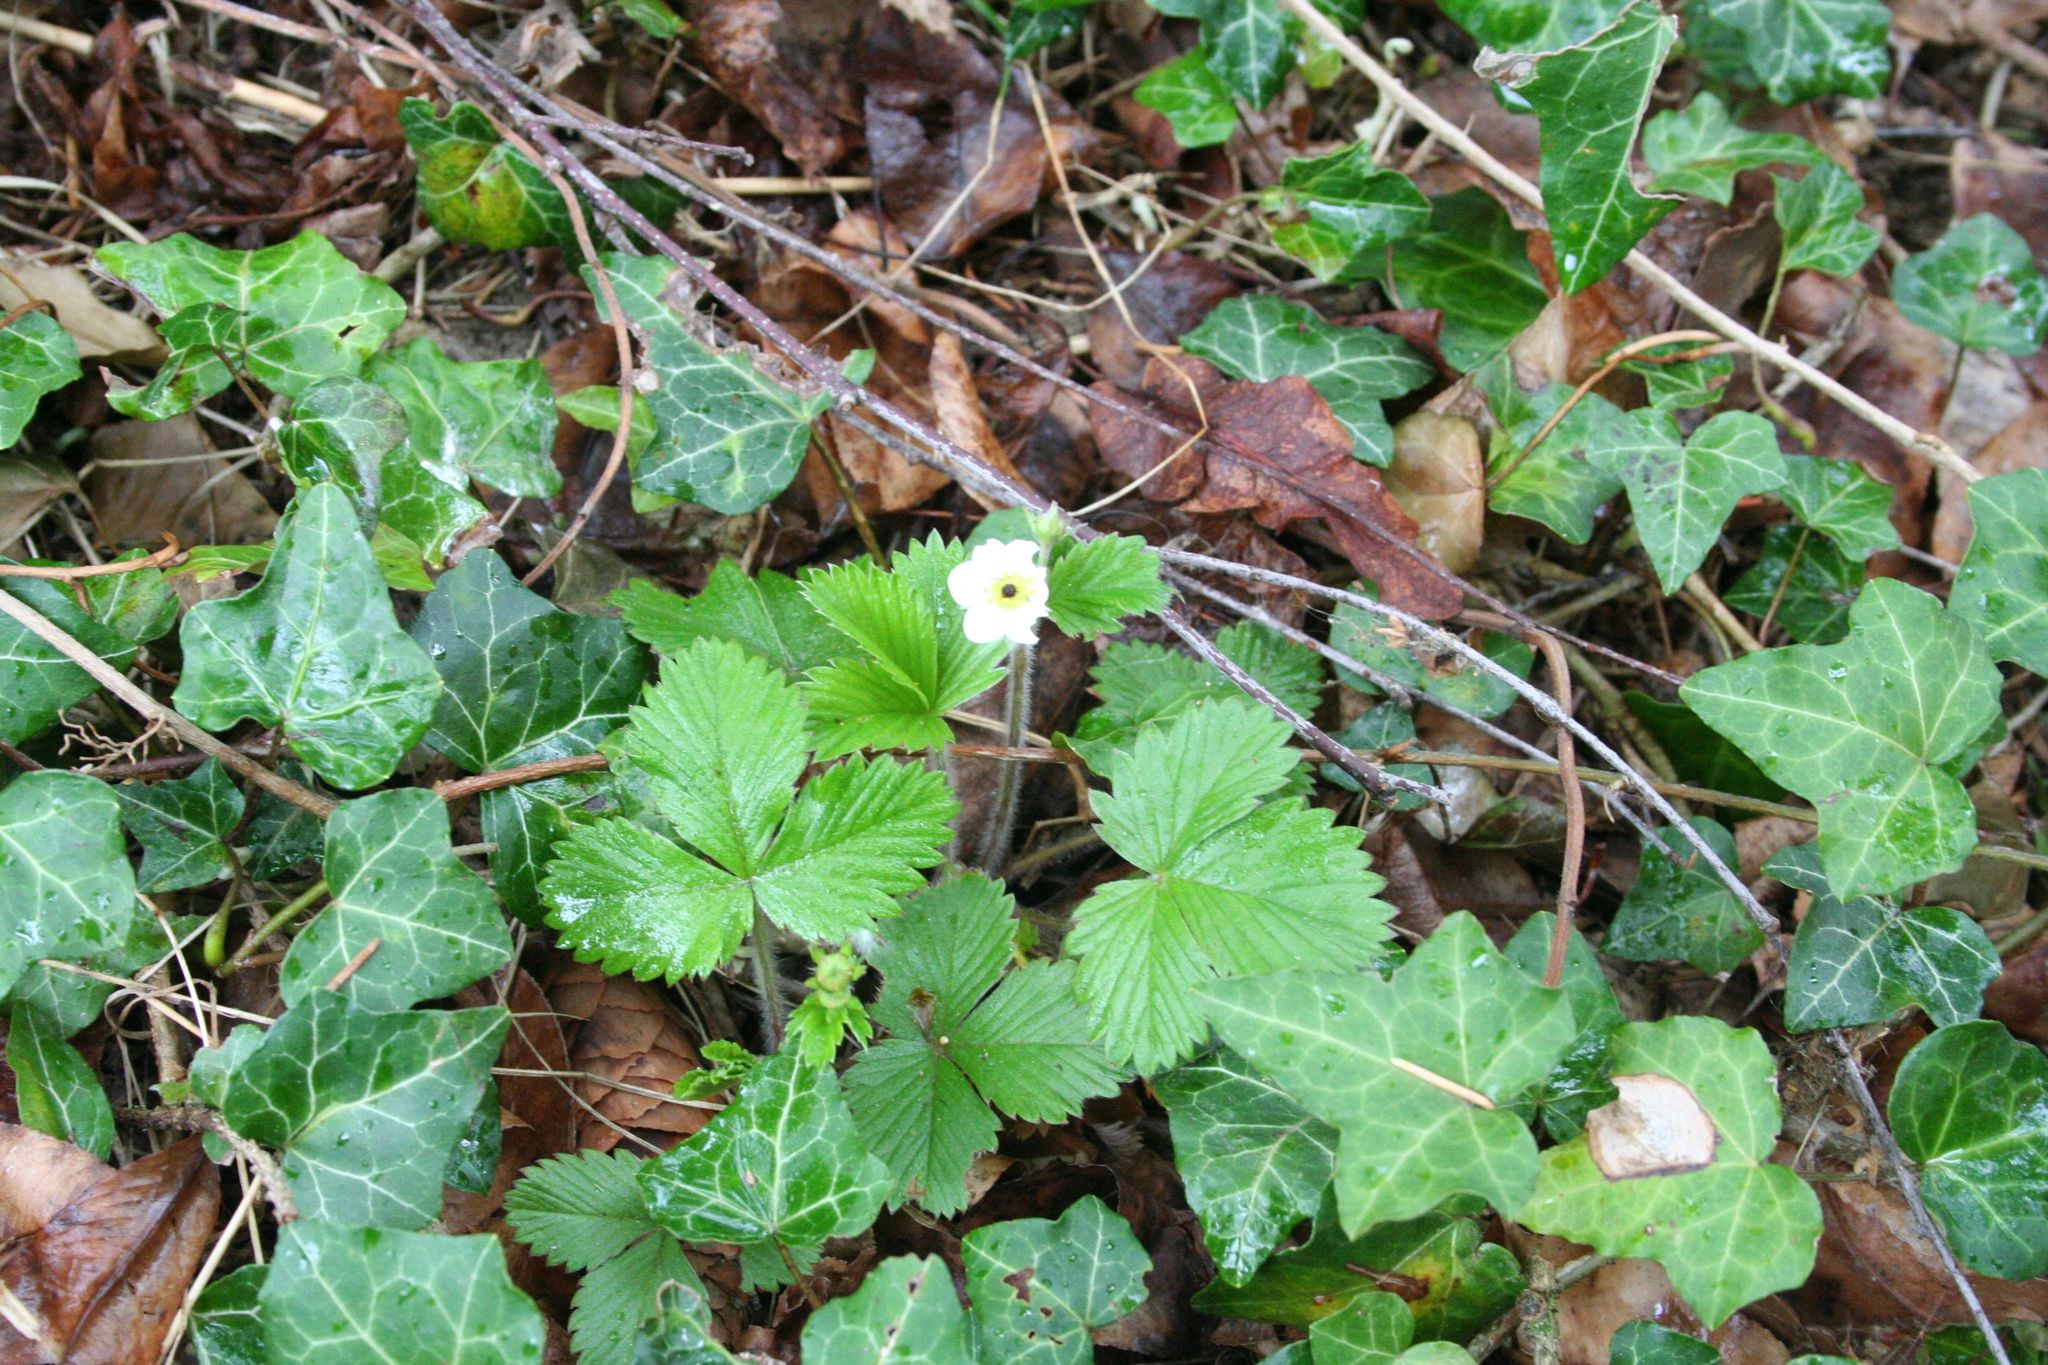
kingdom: Plantae
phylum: Tracheophyta
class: Magnoliopsida
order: Rosales
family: Rosaceae
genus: Fragaria
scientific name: Fragaria vesca
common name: Wild strawberry
